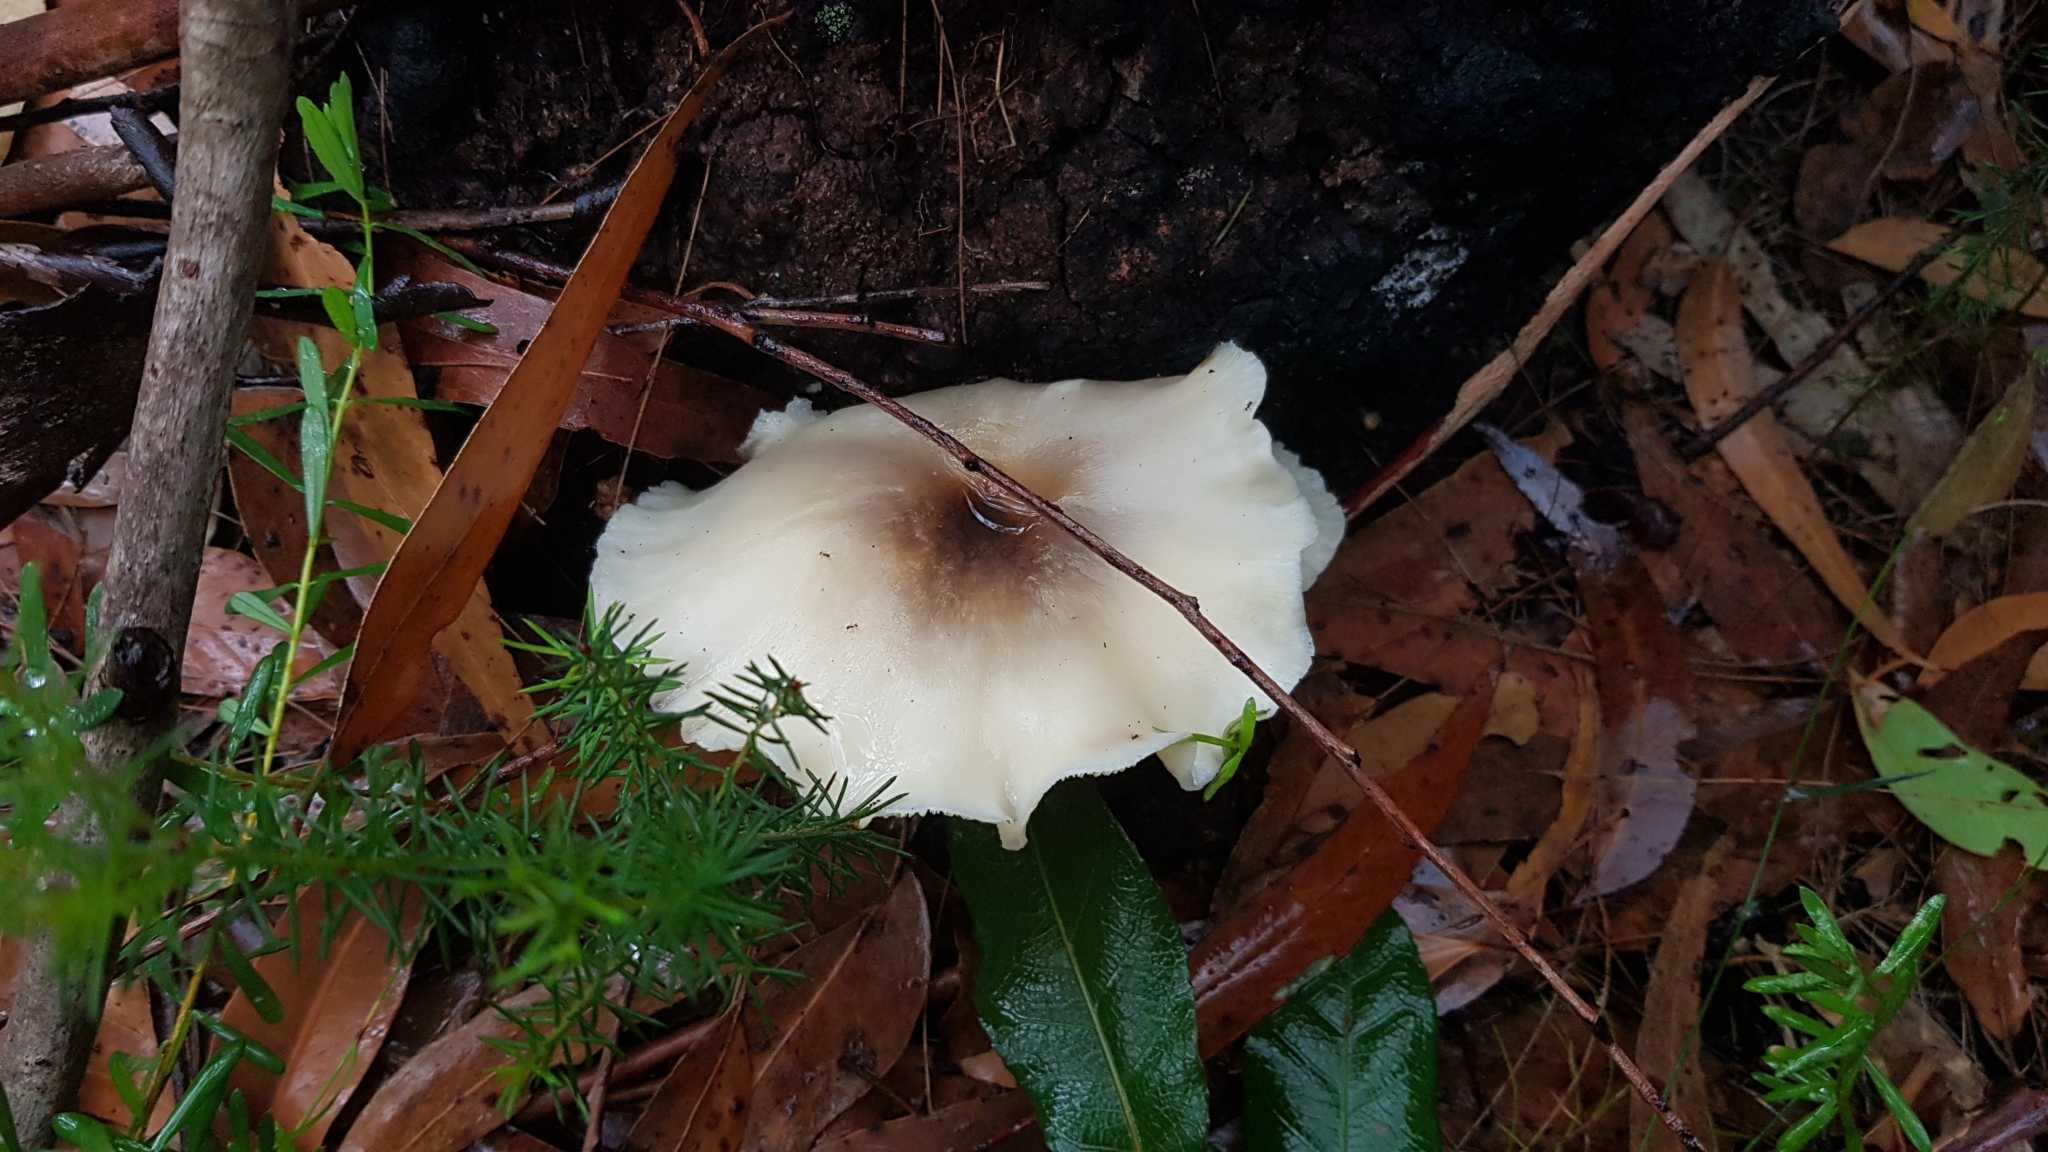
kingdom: Fungi
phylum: Basidiomycota
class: Agaricomycetes
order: Agaricales
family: Omphalotaceae
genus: Omphalotus
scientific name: Omphalotus nidiformis
